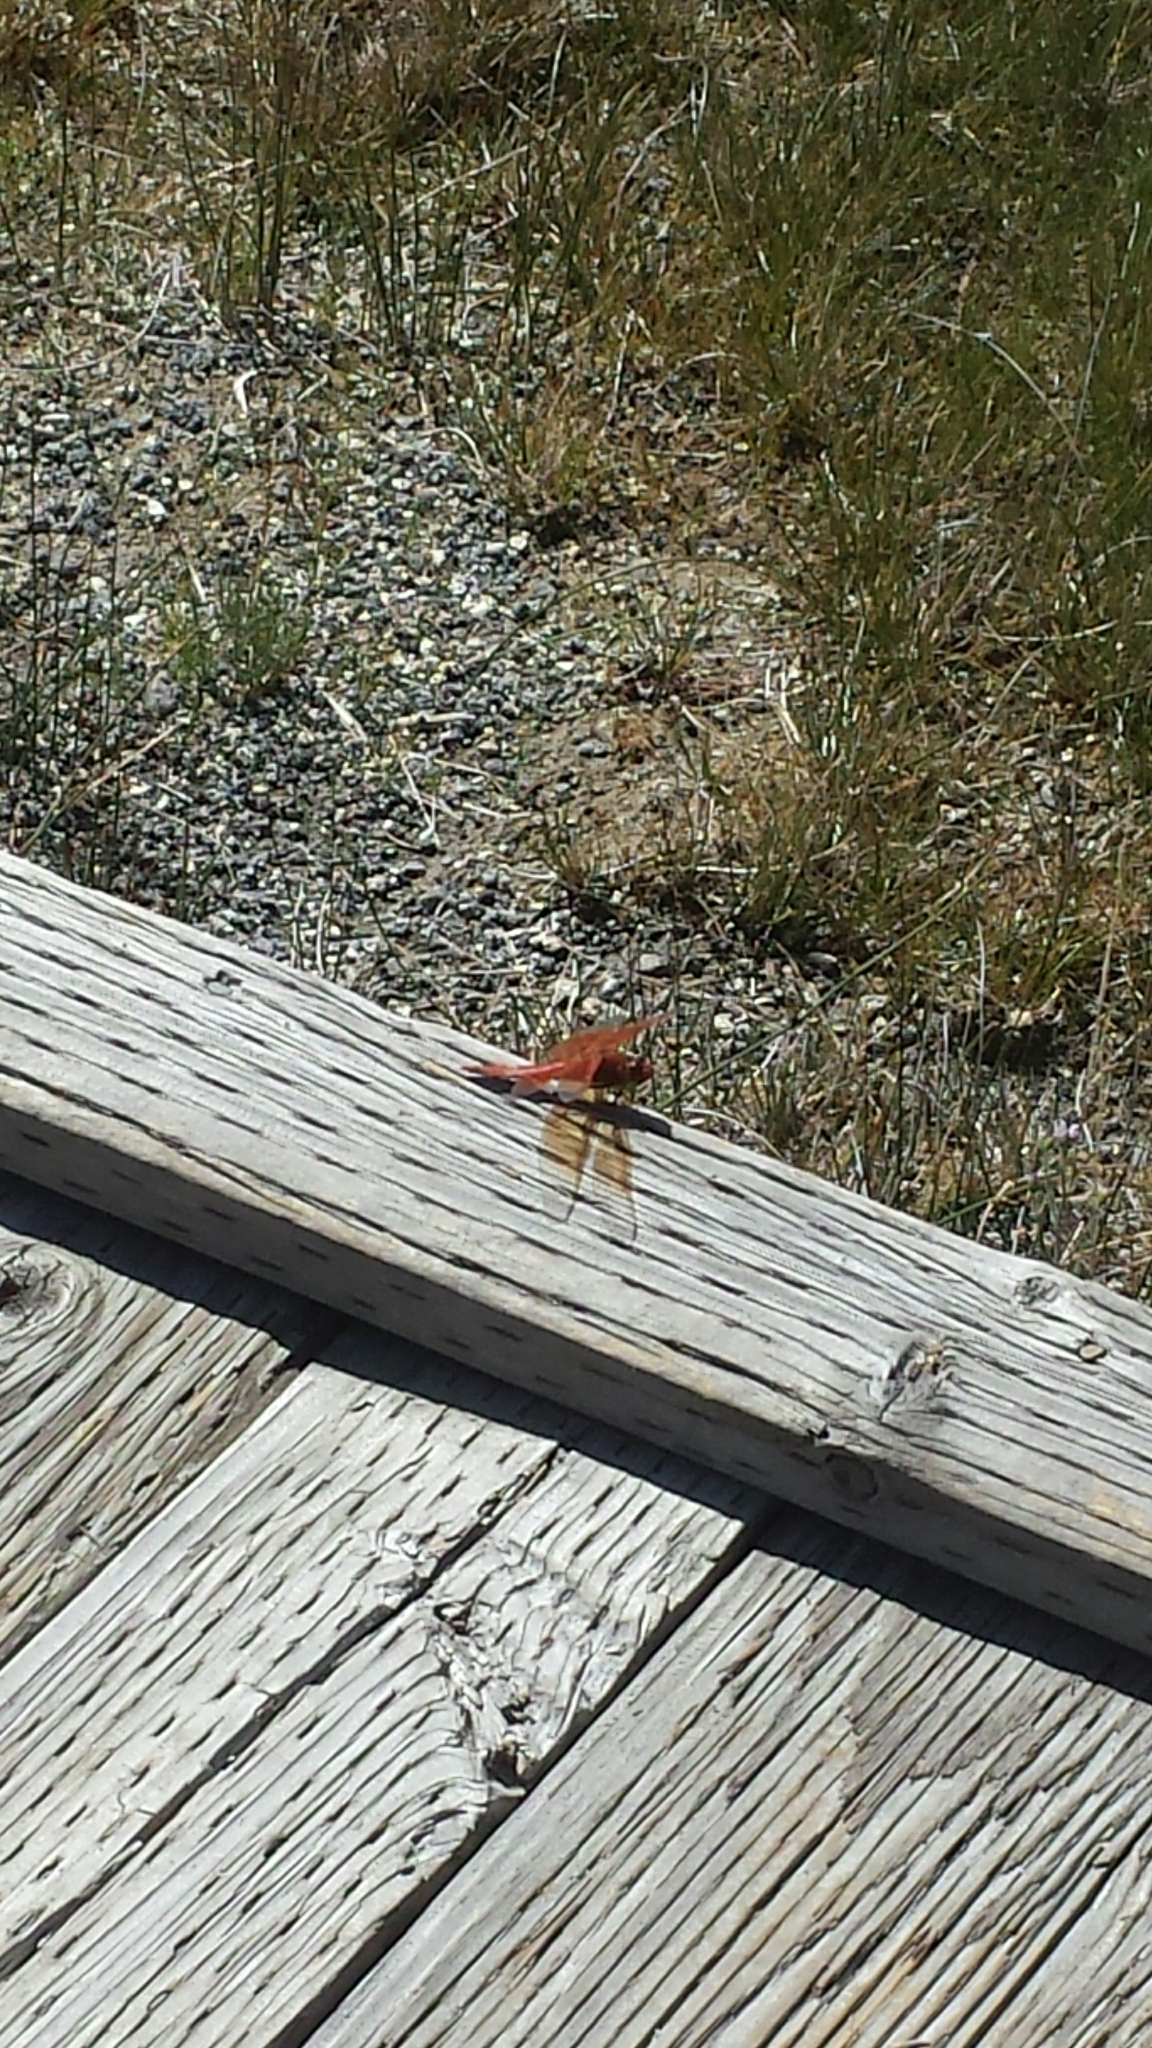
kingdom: Animalia
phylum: Arthropoda
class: Insecta
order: Odonata
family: Libellulidae
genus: Libellula
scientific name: Libellula saturata
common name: Flame skimmer
